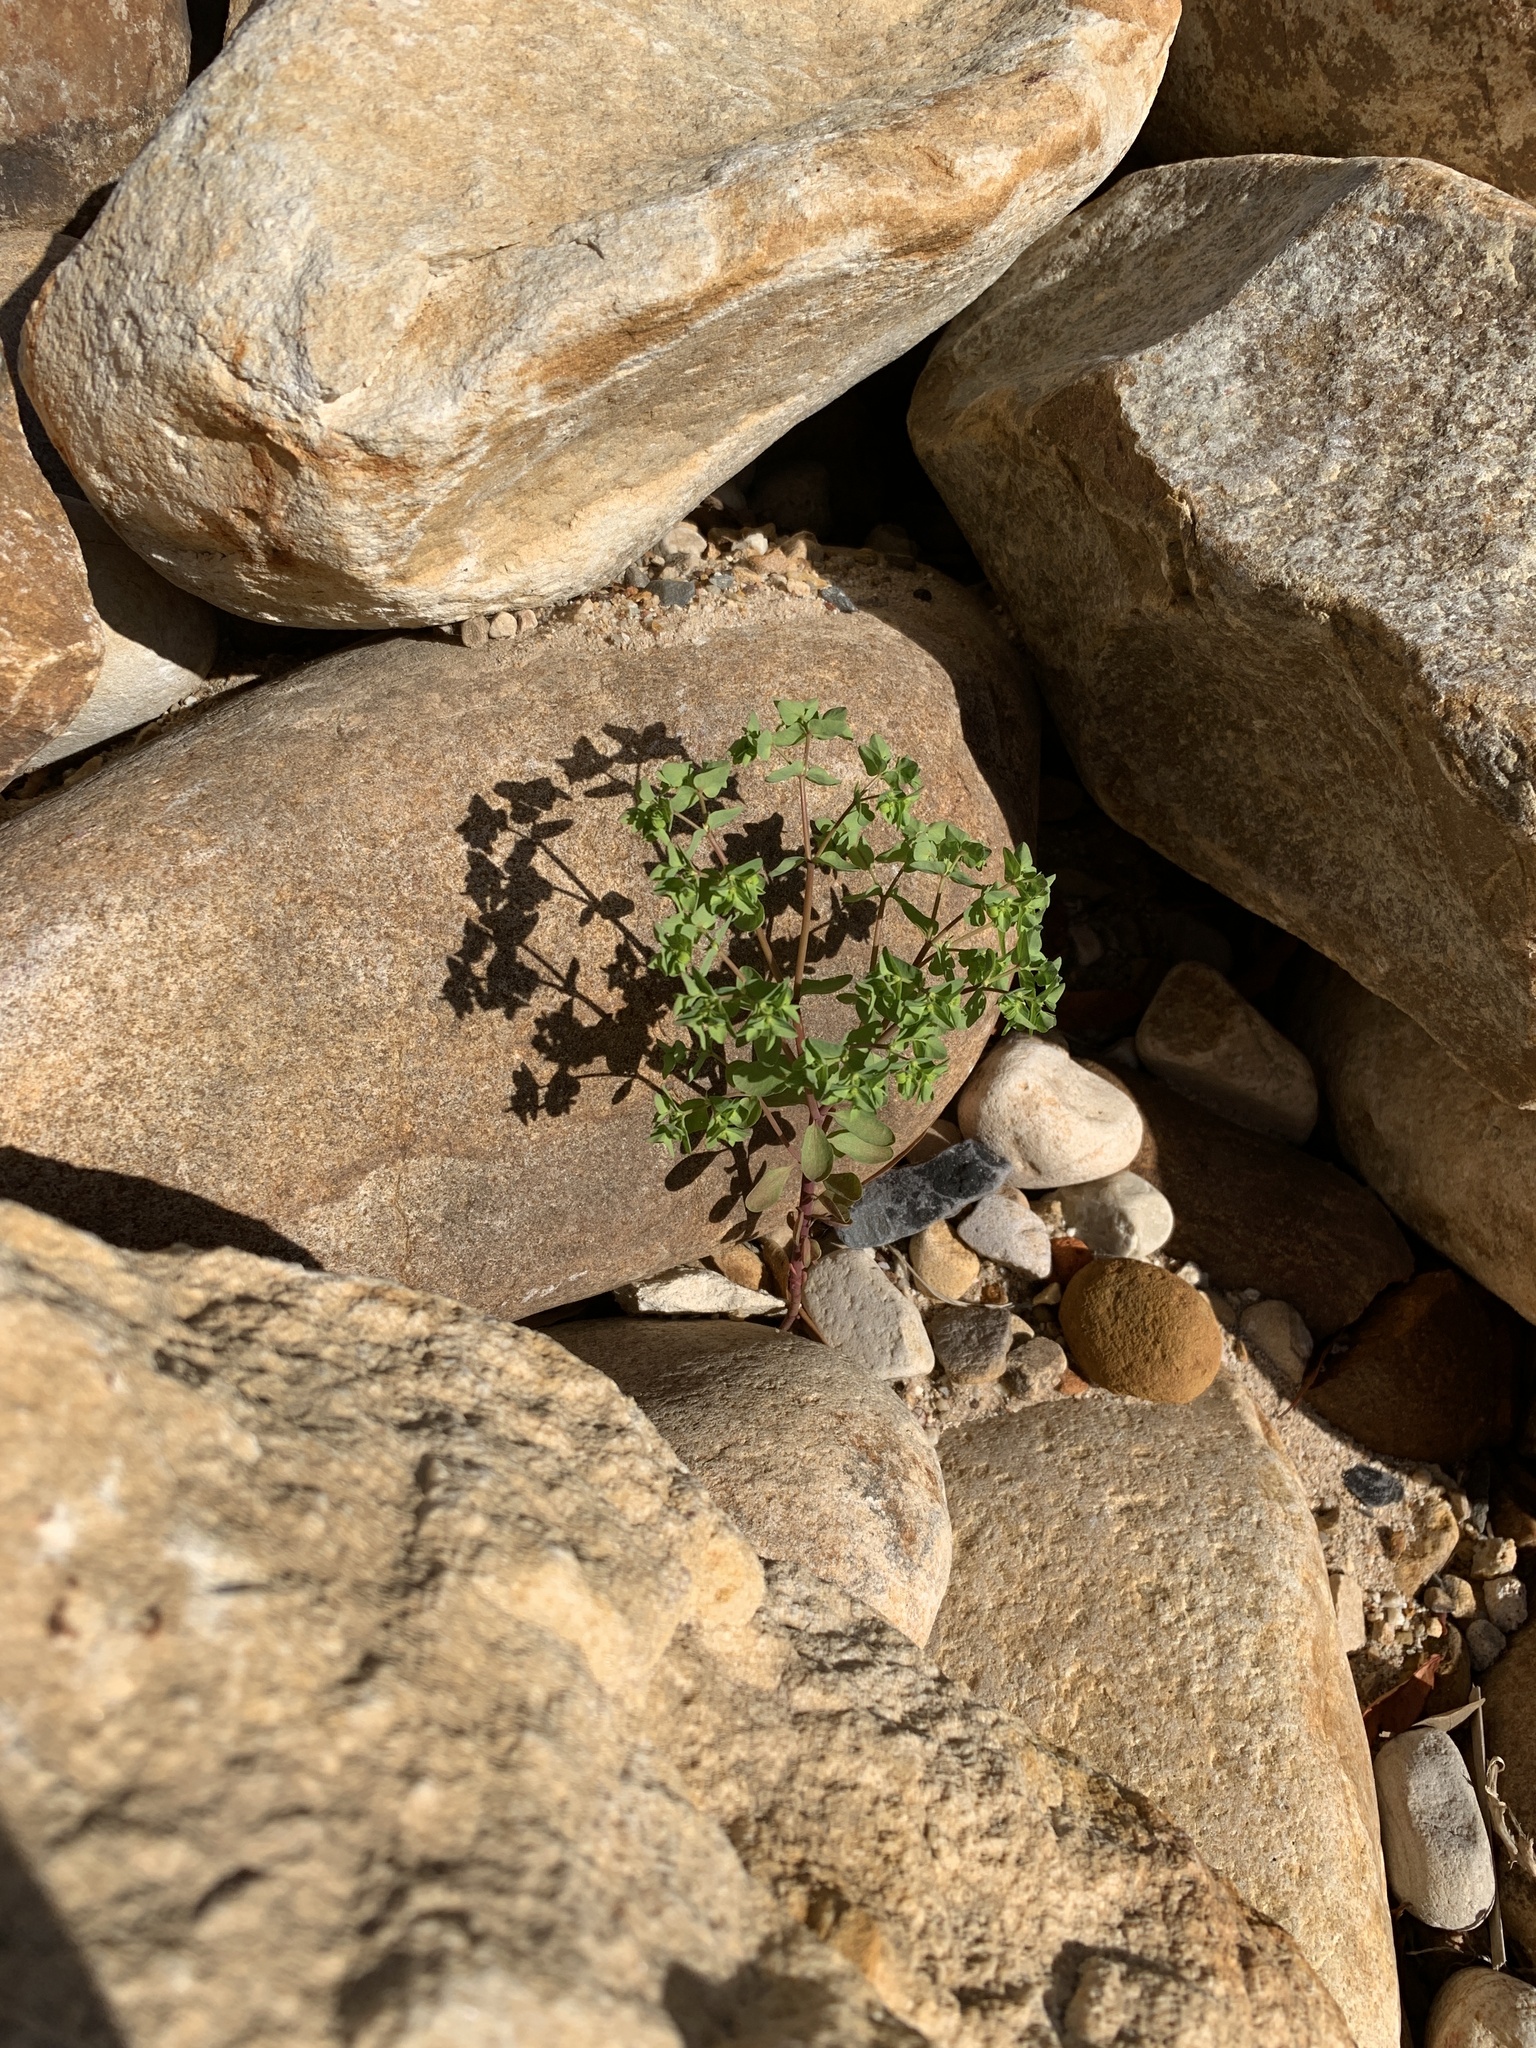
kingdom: Plantae
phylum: Tracheophyta
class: Magnoliopsida
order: Malpighiales
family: Euphorbiaceae
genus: Euphorbia
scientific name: Euphorbia peplus
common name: Petty spurge
